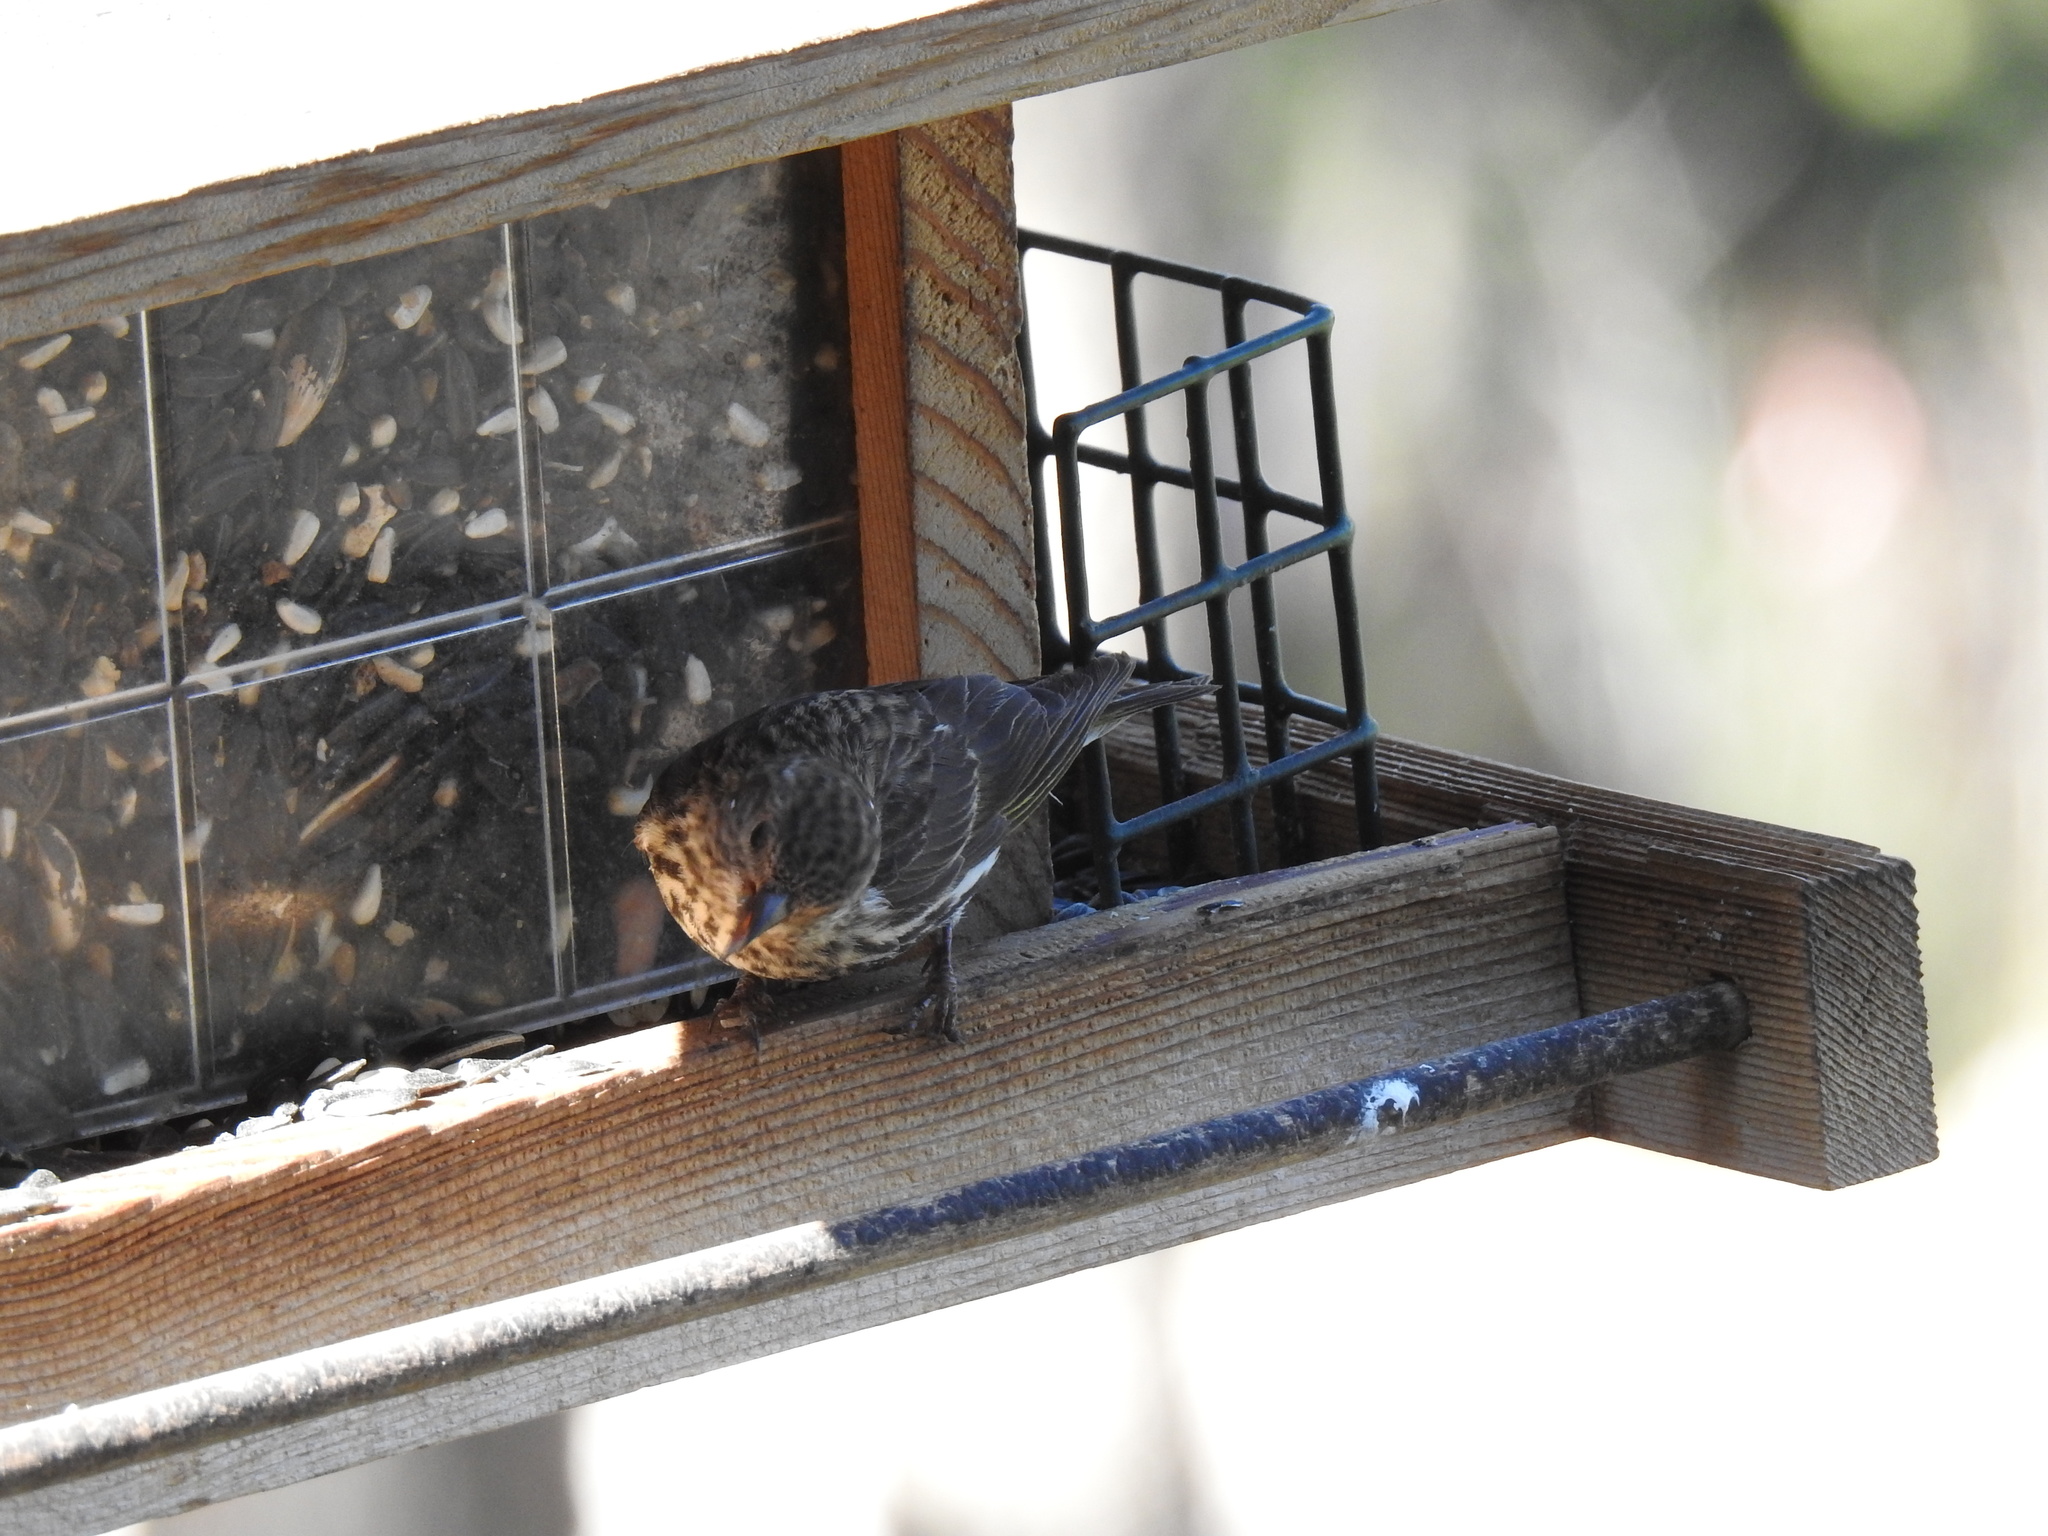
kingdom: Animalia
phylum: Chordata
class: Aves
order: Passeriformes
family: Fringillidae
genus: Spinus
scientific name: Spinus pinus
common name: Pine siskin
